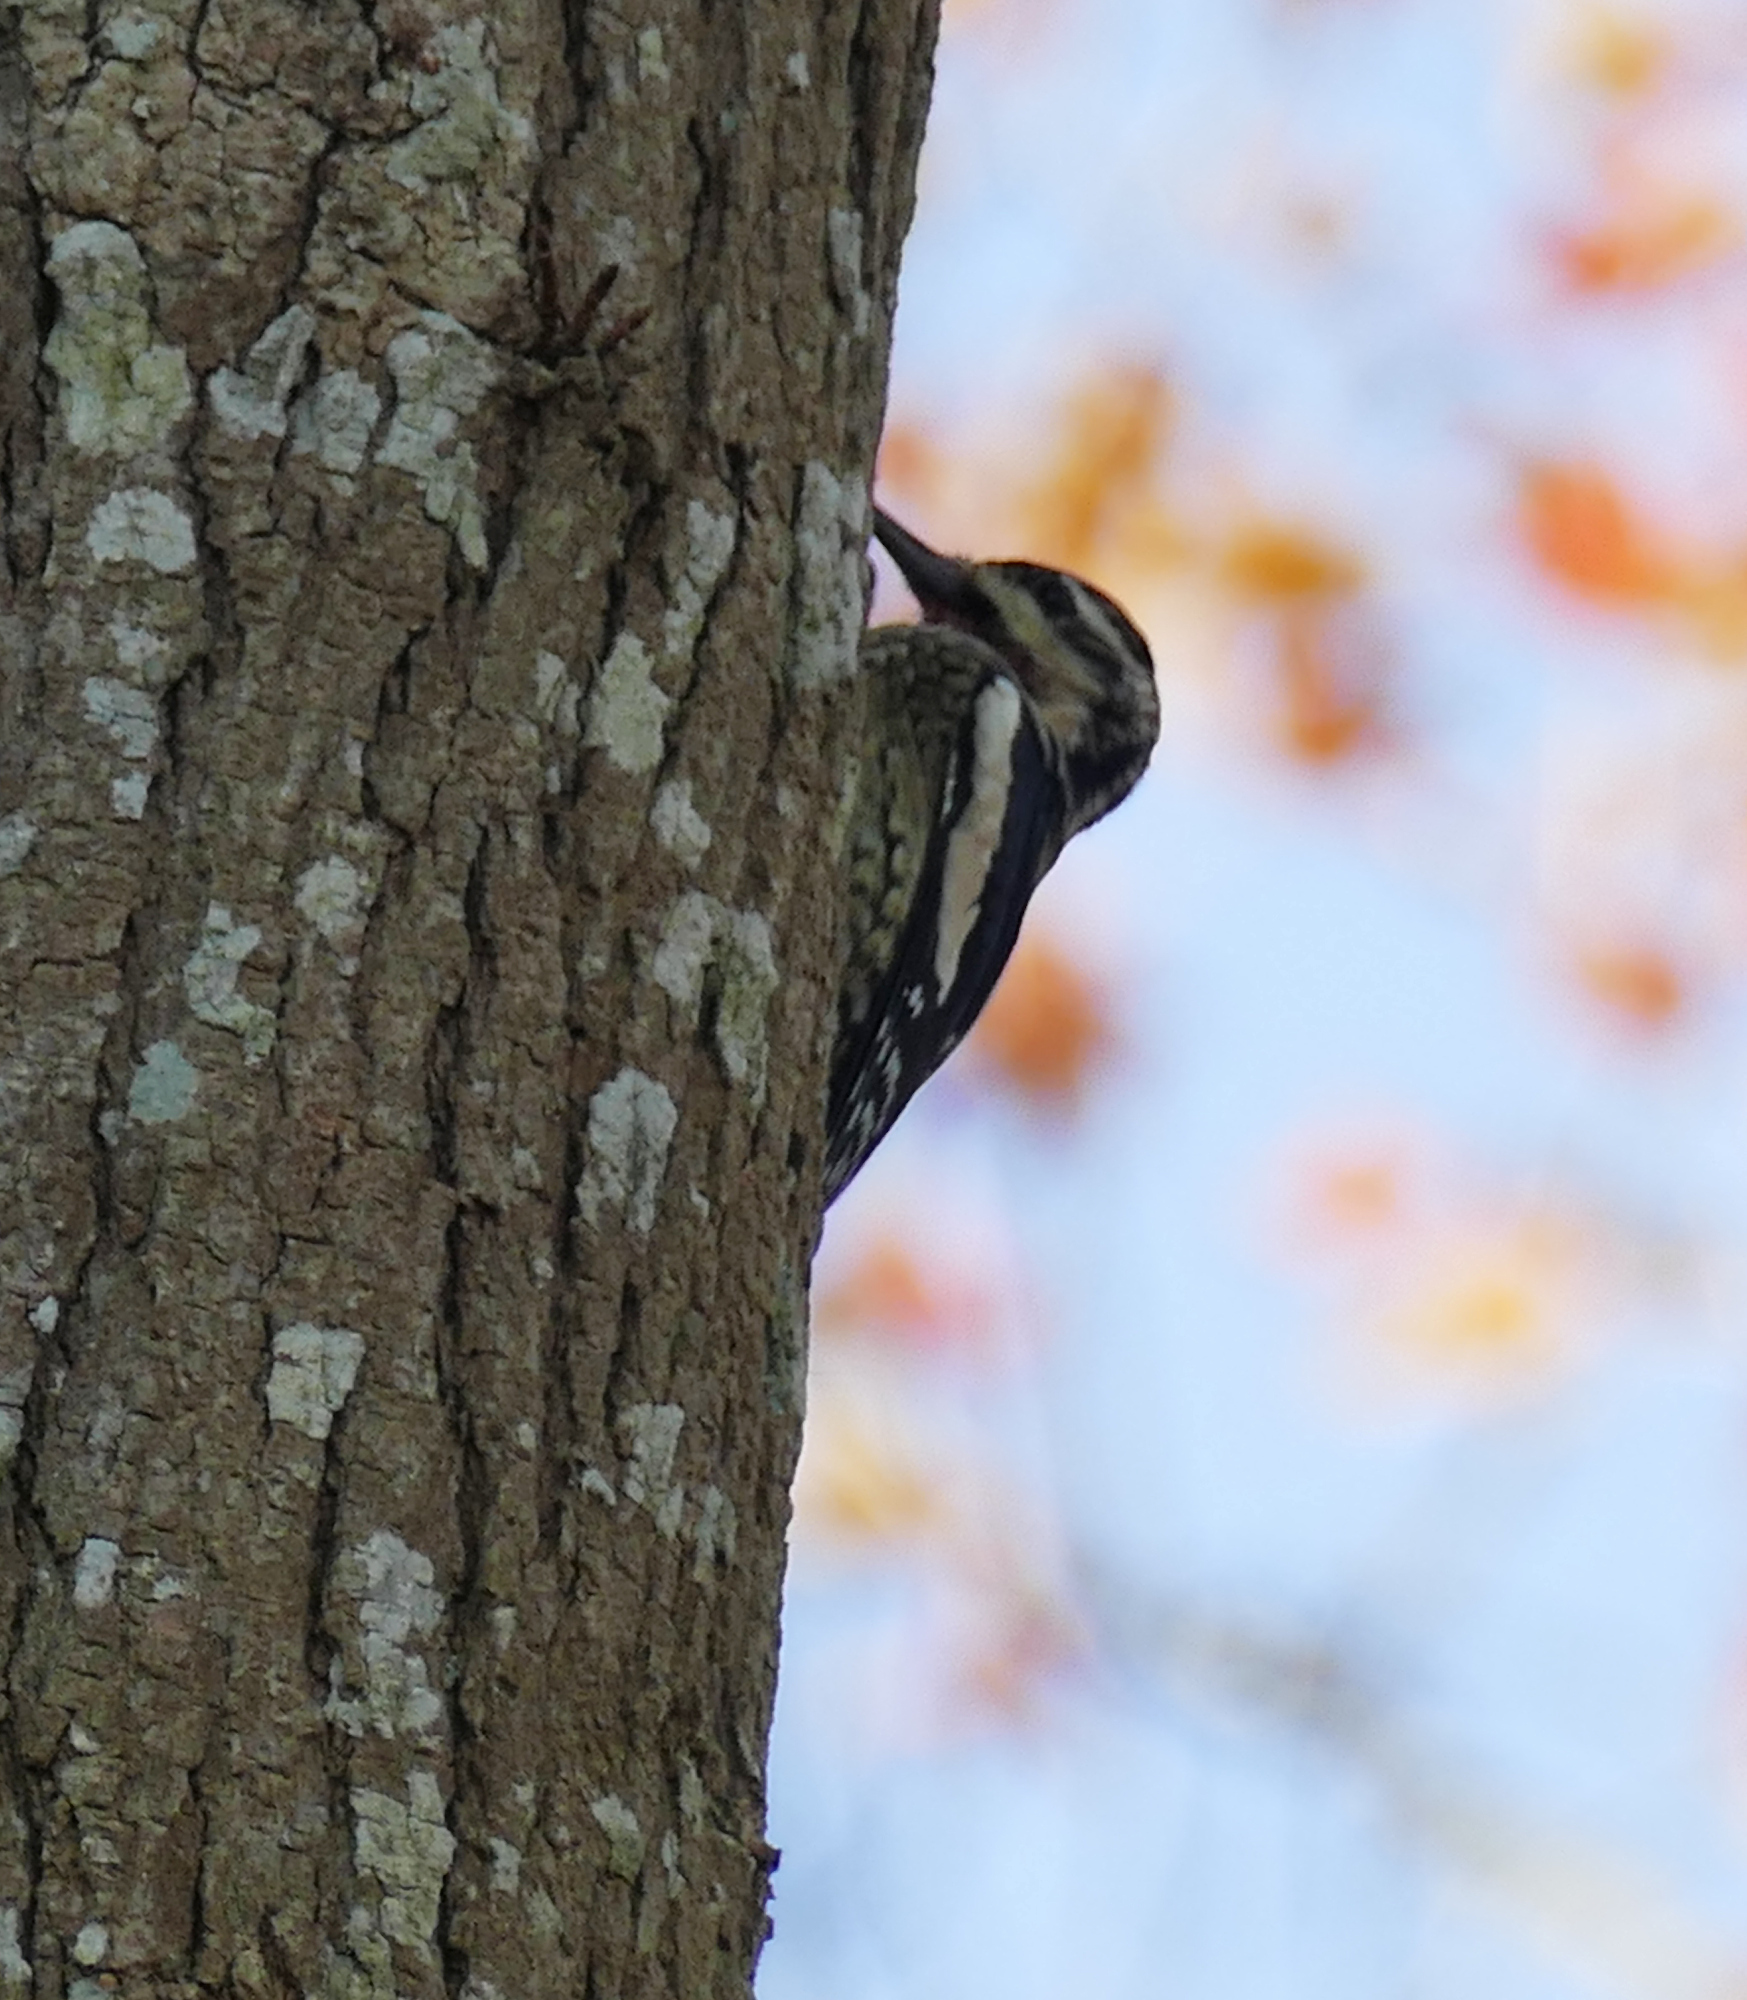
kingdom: Animalia
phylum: Chordata
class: Aves
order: Piciformes
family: Picidae
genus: Sphyrapicus
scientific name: Sphyrapicus varius
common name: Yellow-bellied sapsucker
